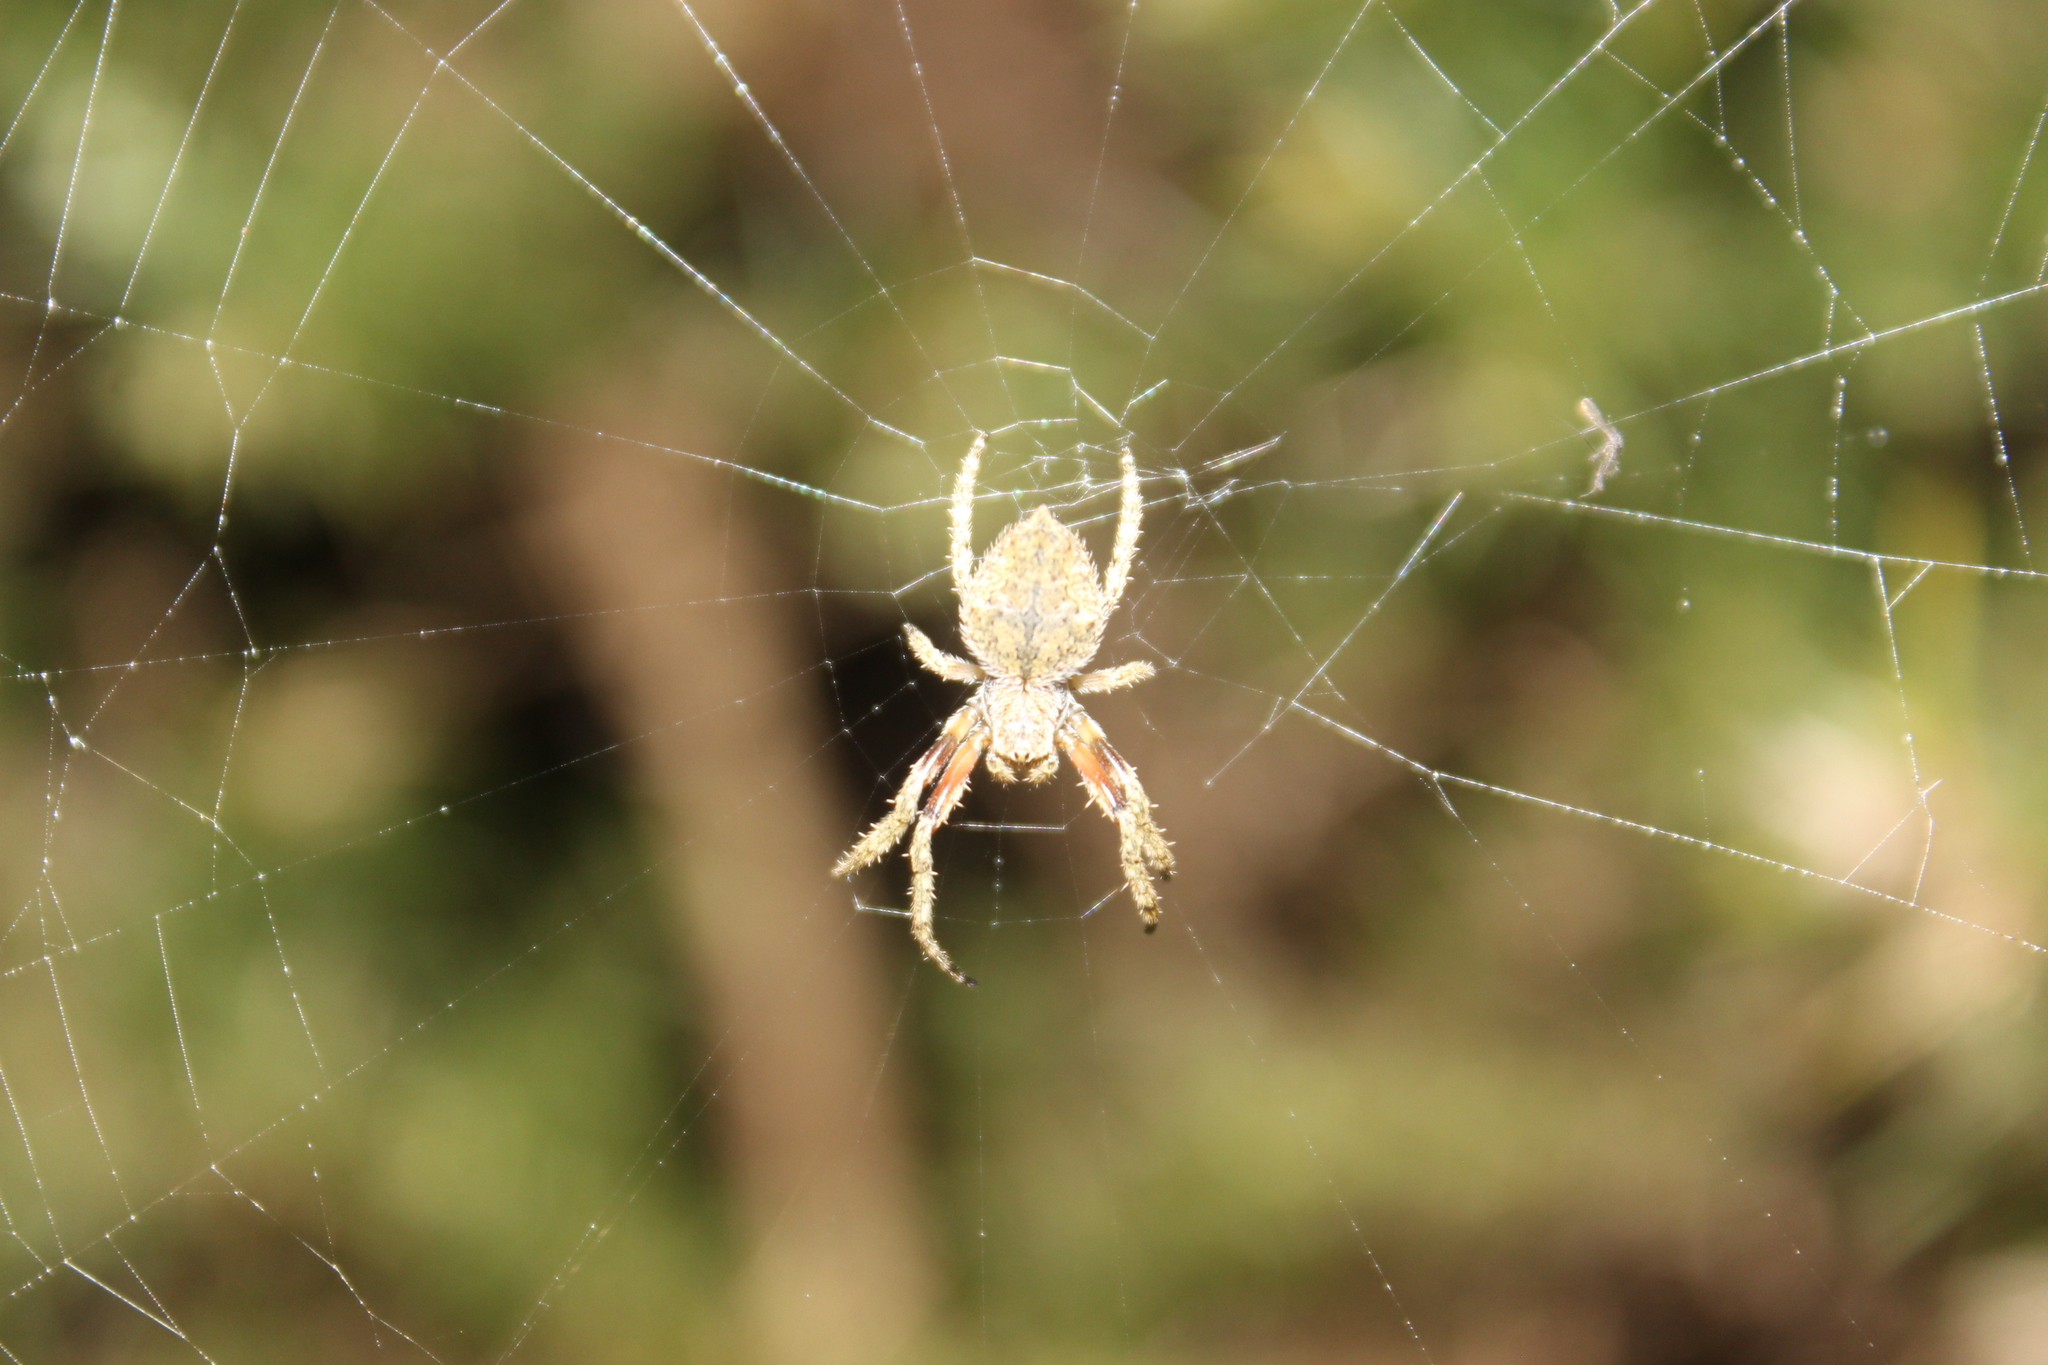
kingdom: Animalia
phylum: Arthropoda
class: Arachnida
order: Araneae
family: Araneidae
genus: Eriophora
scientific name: Eriophora pustulosa
